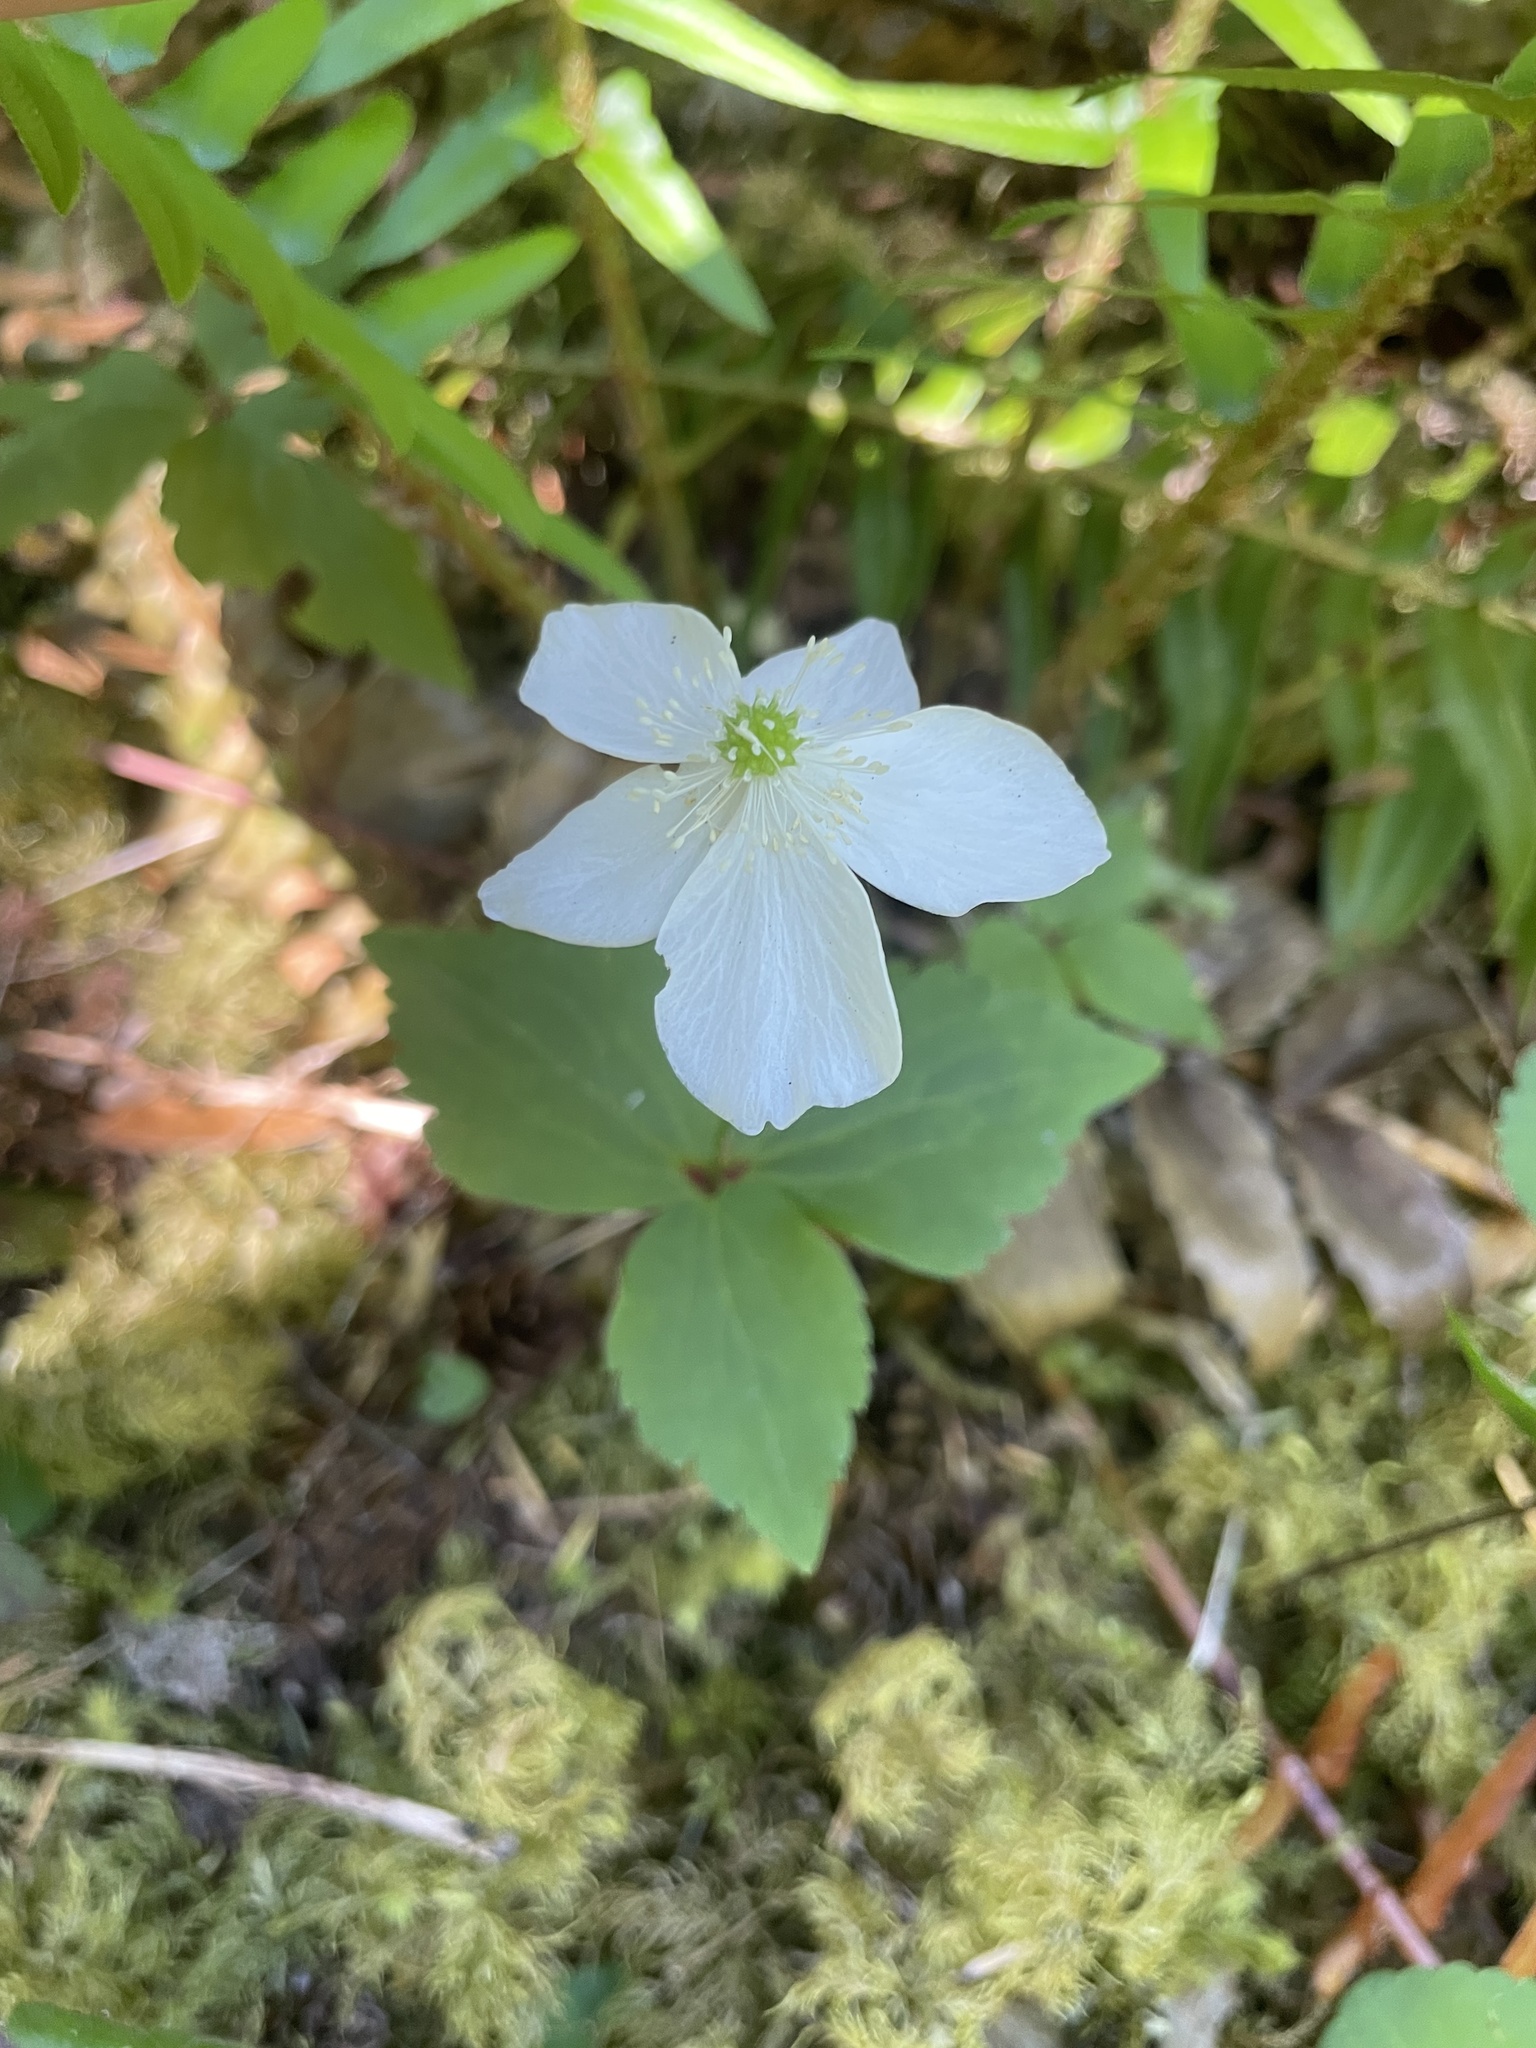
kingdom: Plantae
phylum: Tracheophyta
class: Magnoliopsida
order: Ranunculales
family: Ranunculaceae
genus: Anemonastrum
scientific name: Anemonastrum deltoideum
